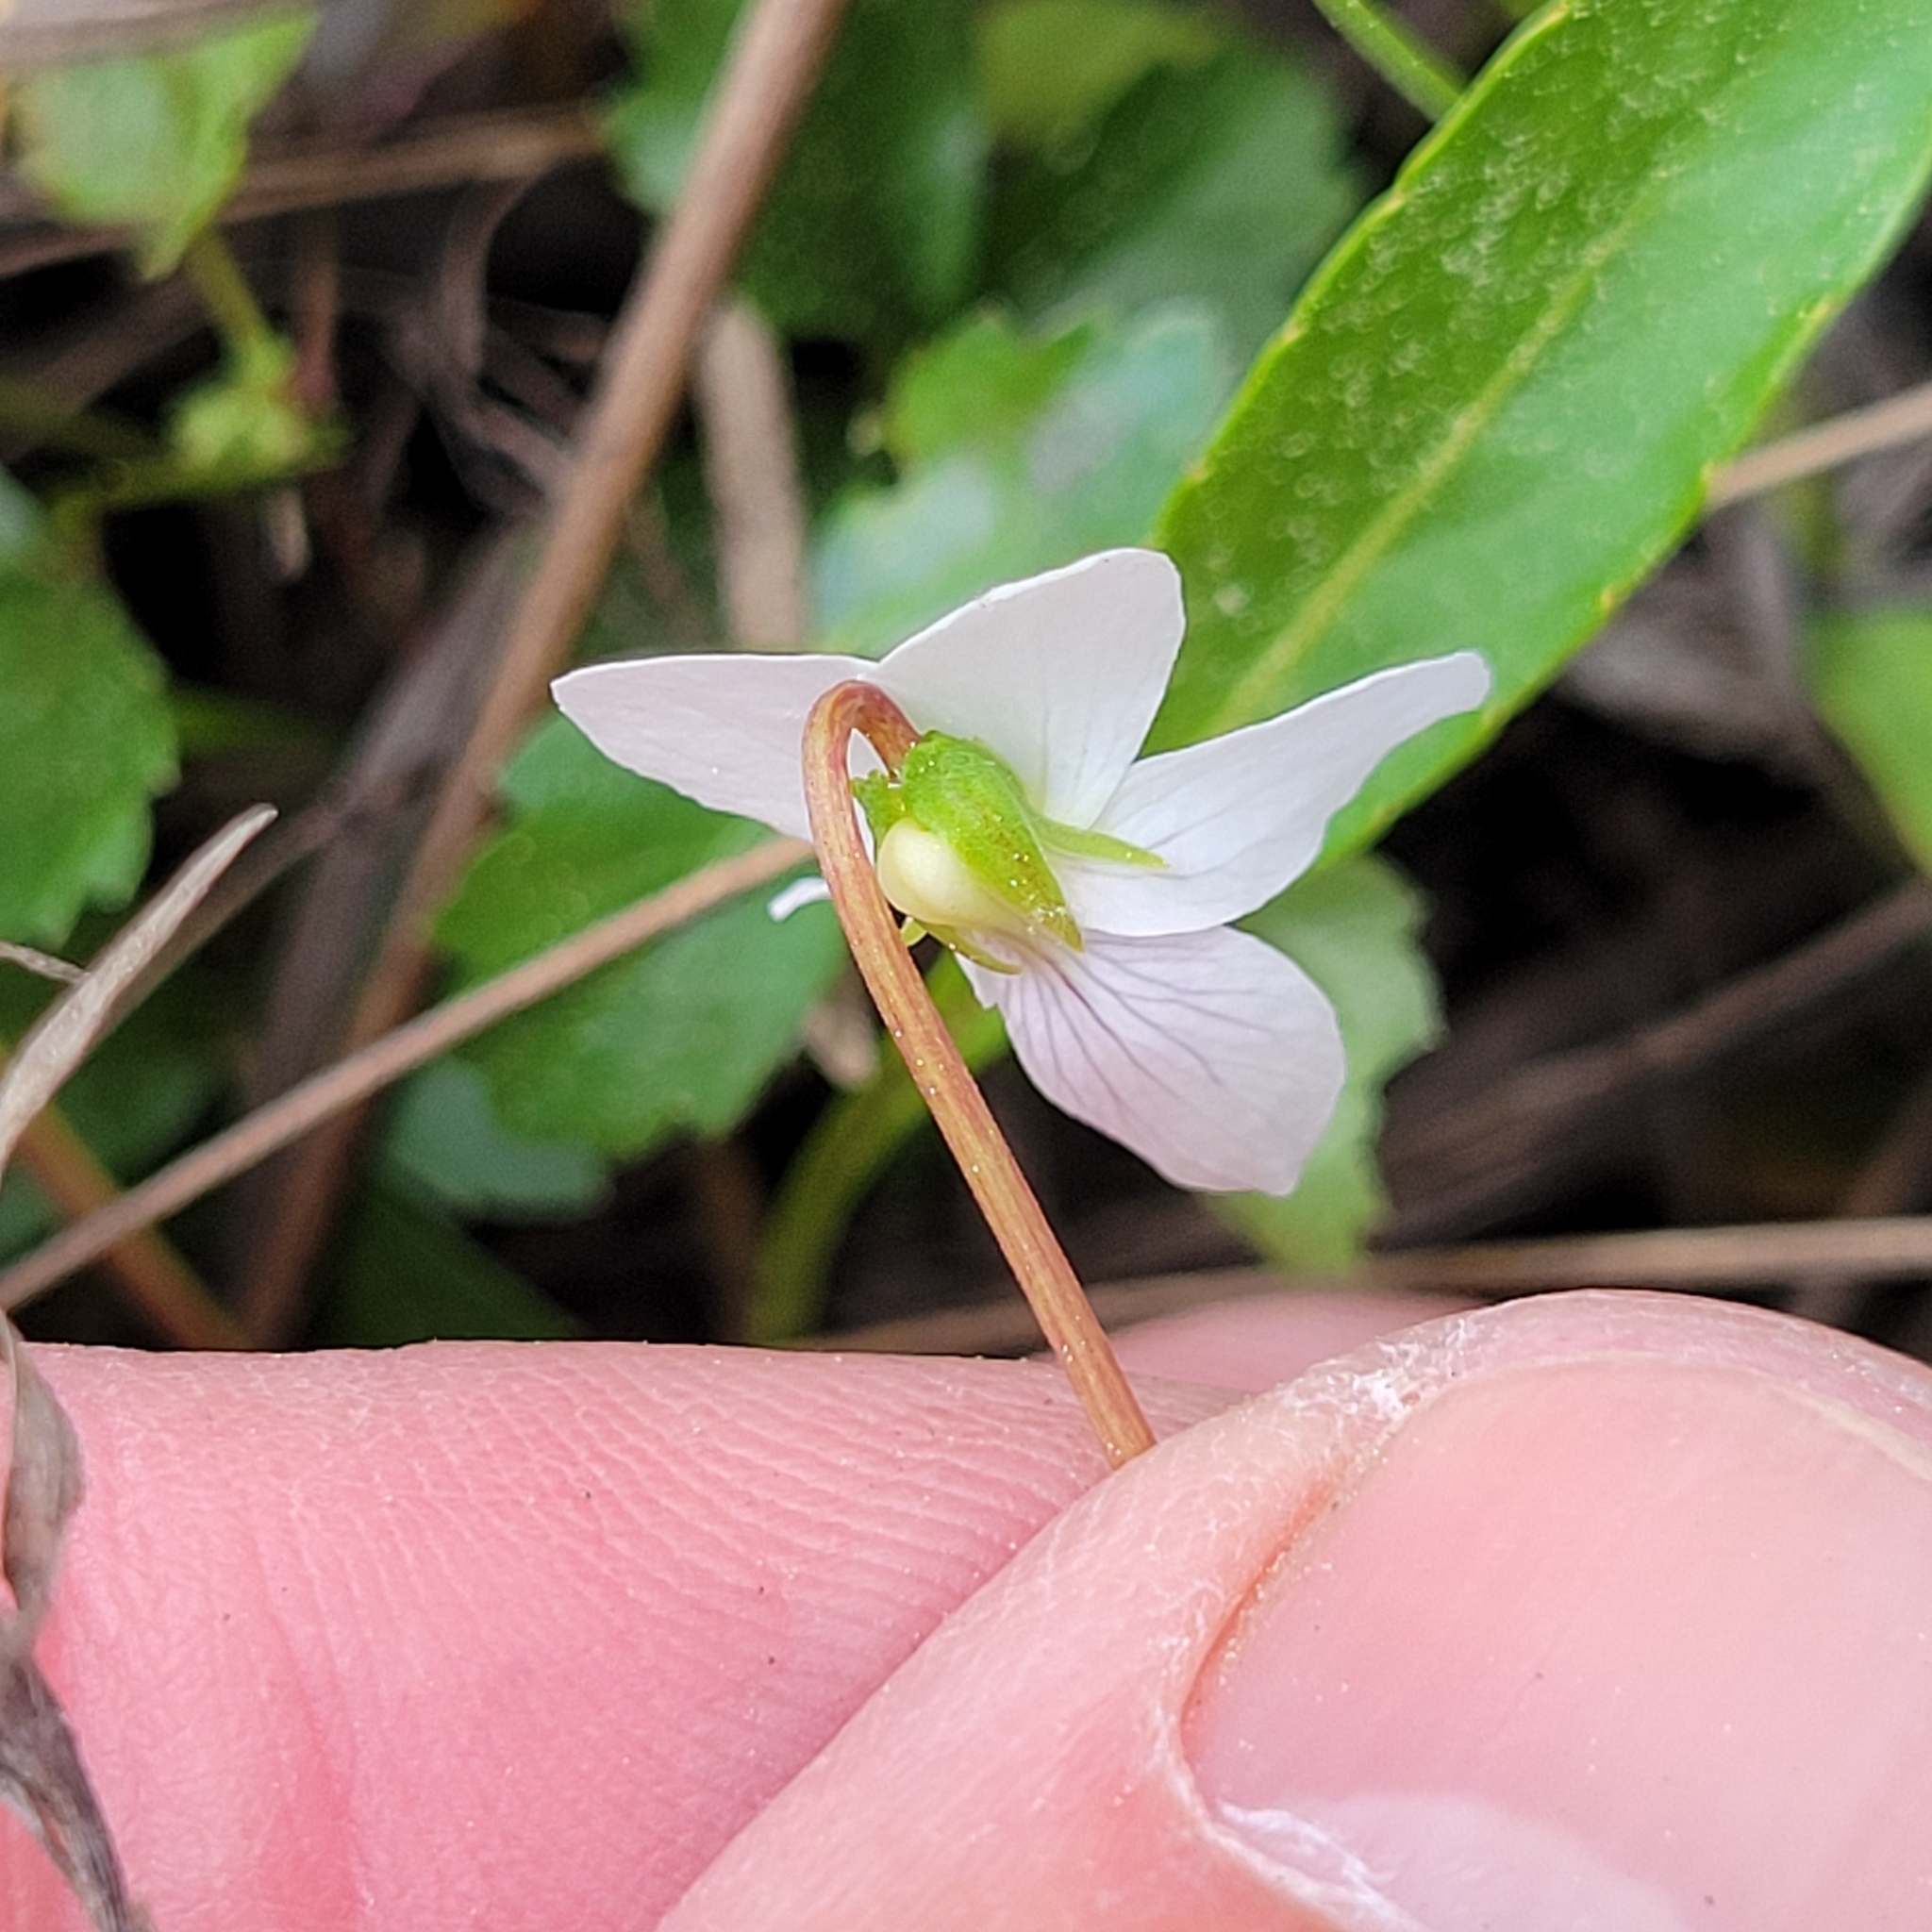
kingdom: Plantae
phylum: Tracheophyta
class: Magnoliopsida
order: Malpighiales
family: Violaceae
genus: Viola
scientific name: Viola lanceolata
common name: Bog white violet
